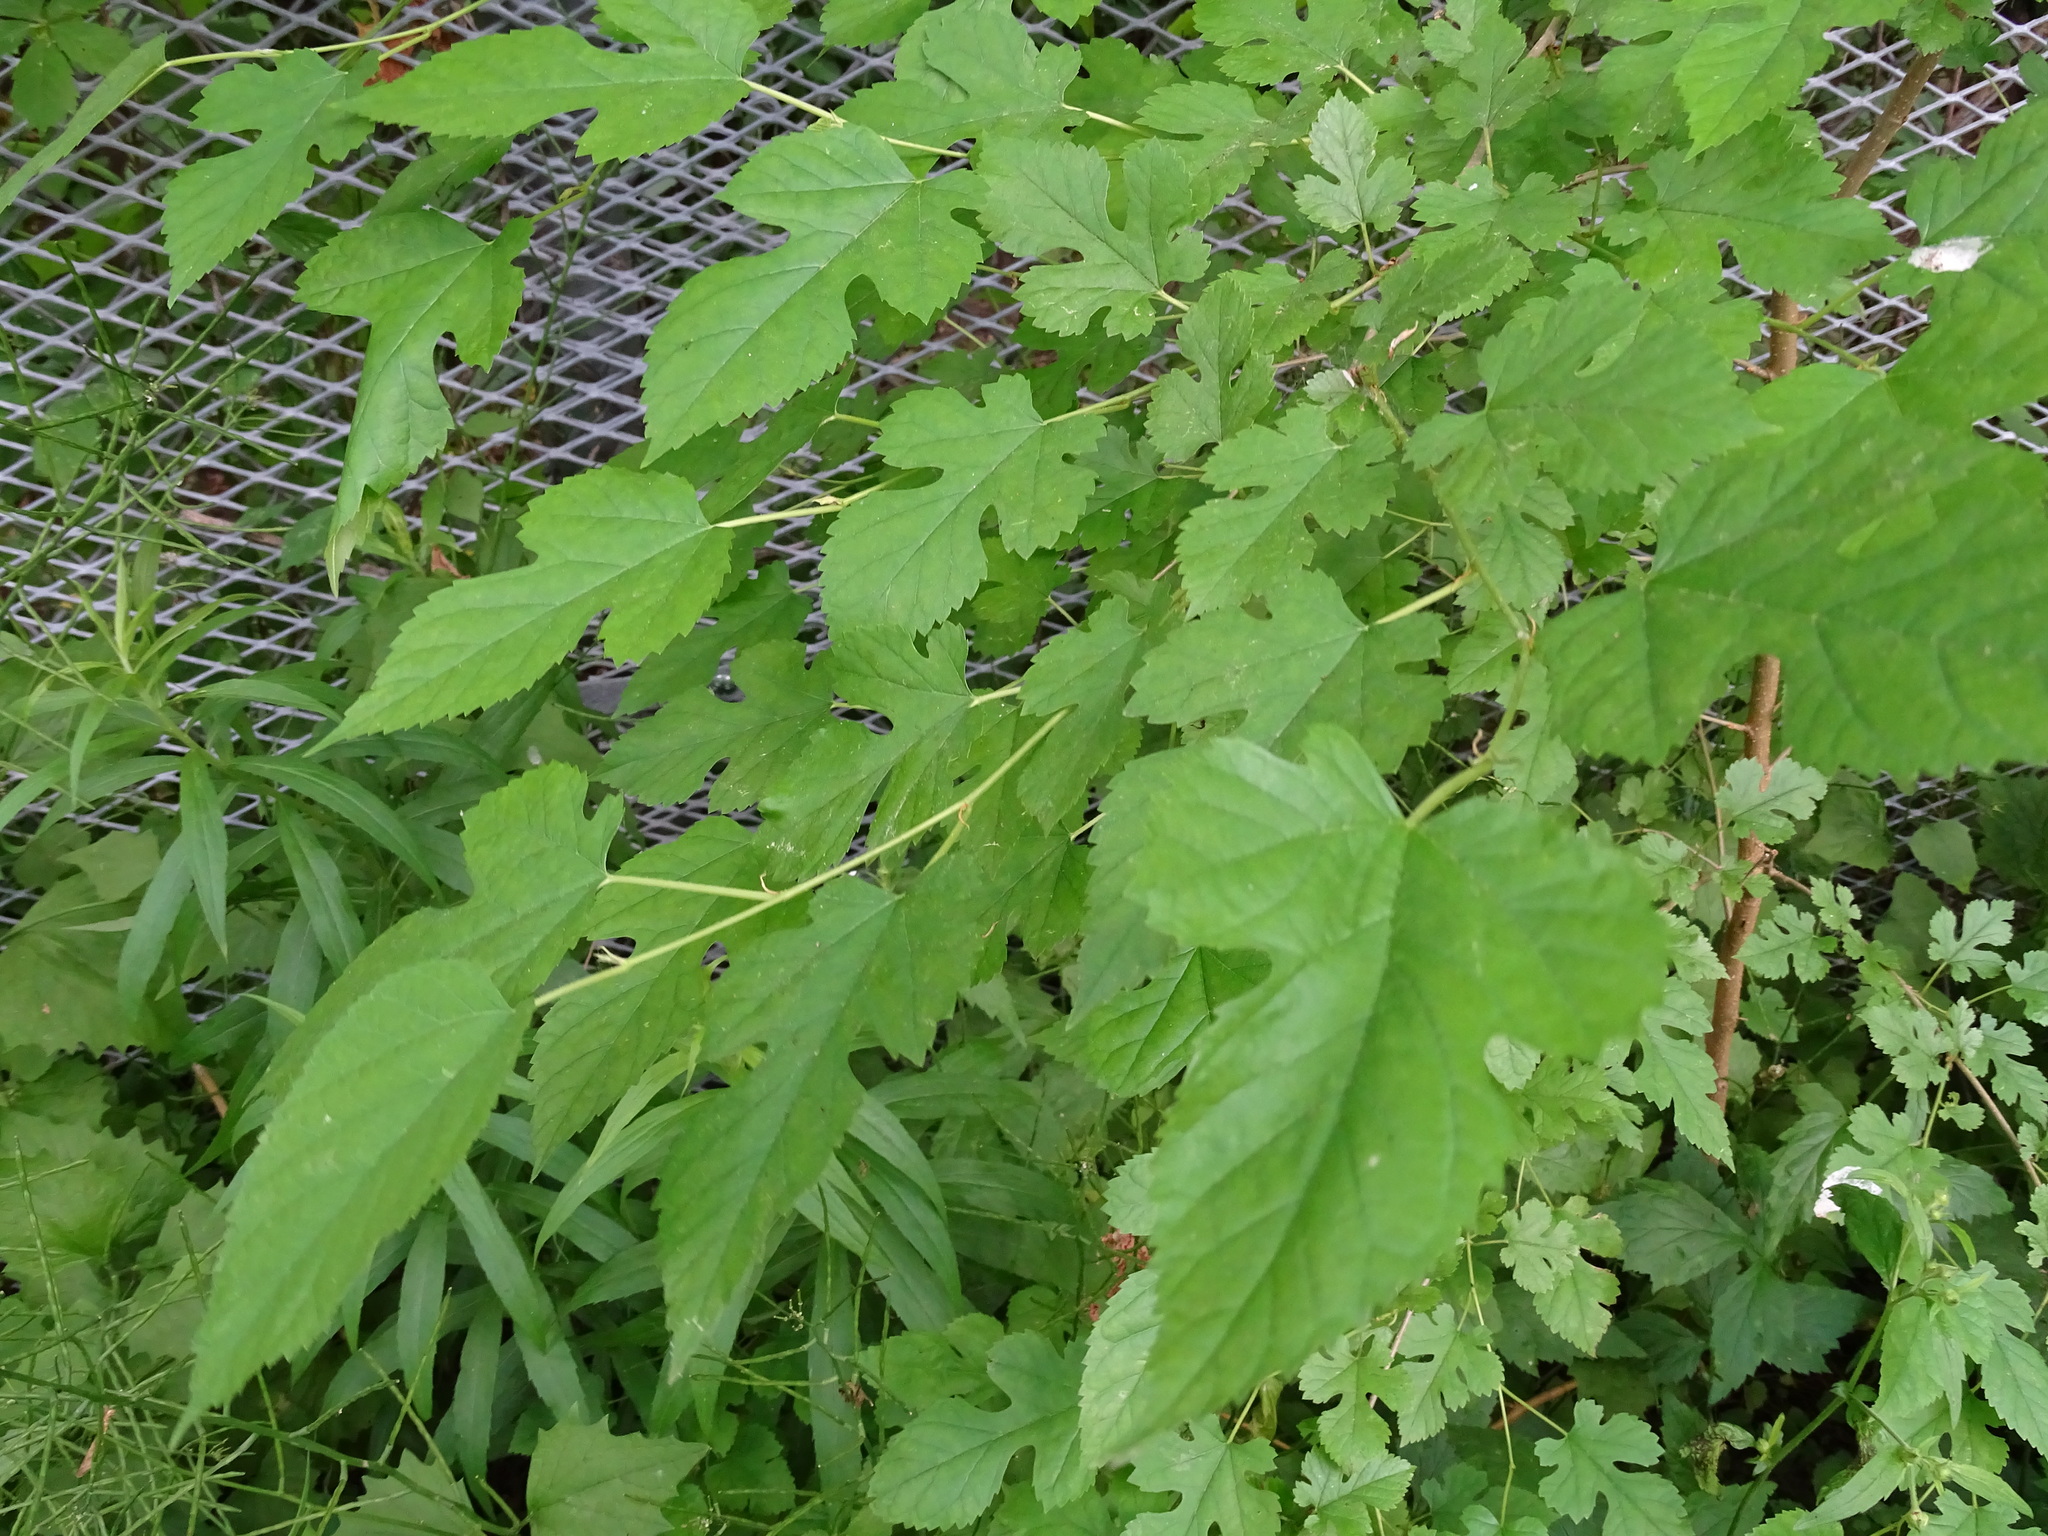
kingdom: Plantae
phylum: Tracheophyta
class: Magnoliopsida
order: Rosales
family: Moraceae
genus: Morus
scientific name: Morus alba
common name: White mulberry
